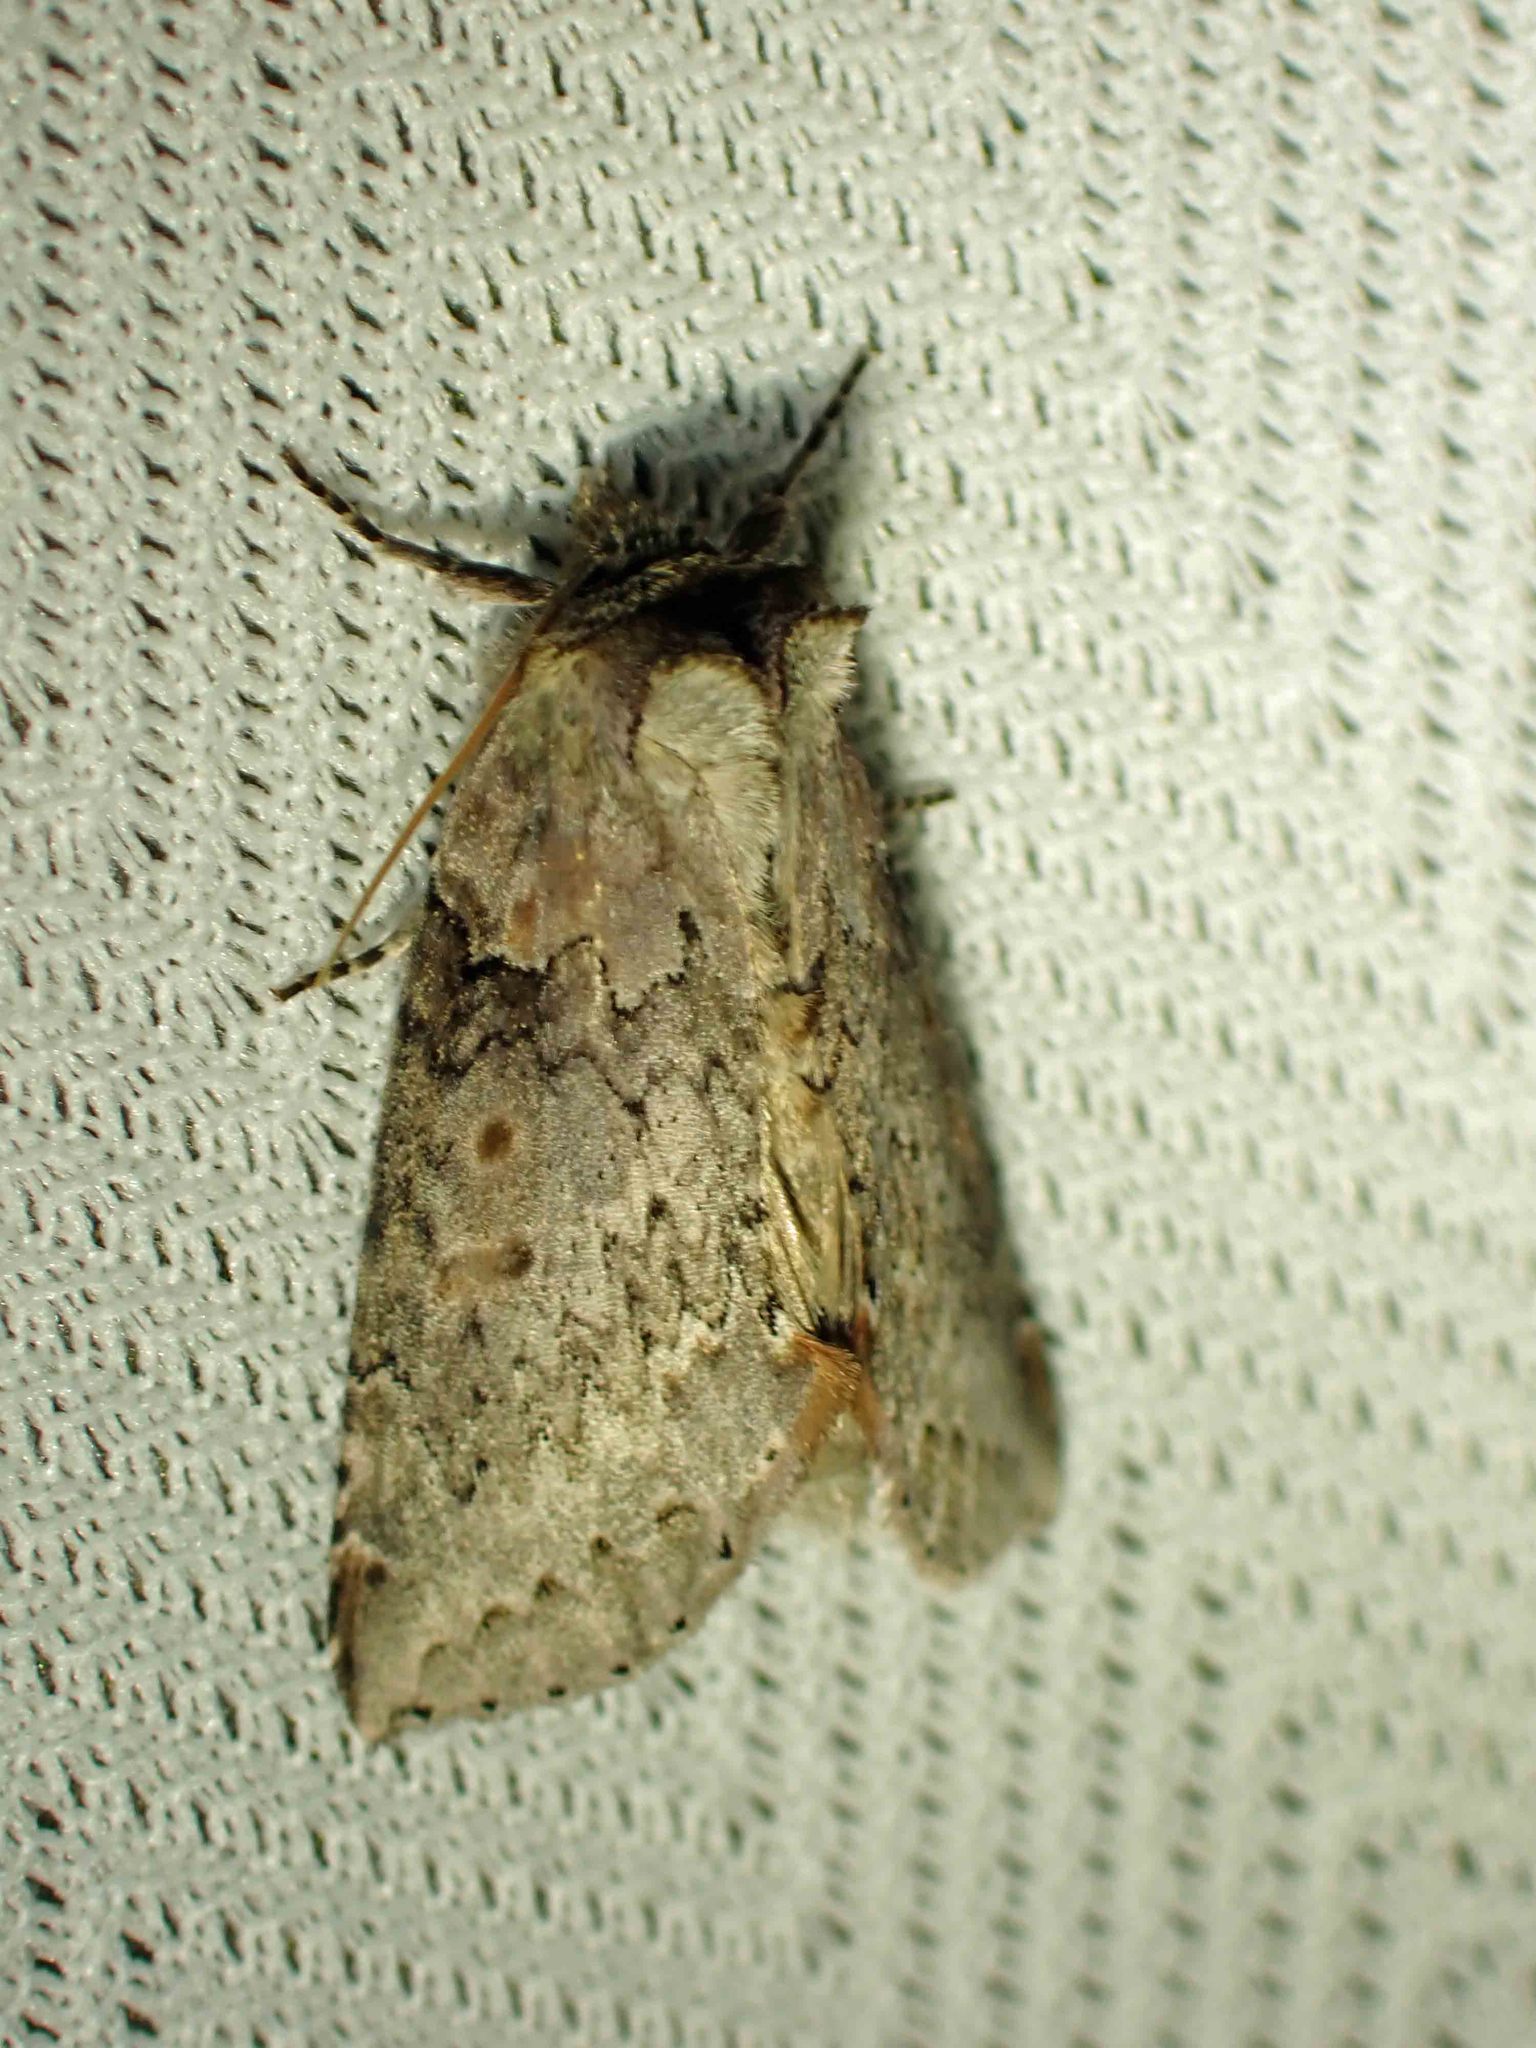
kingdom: Animalia
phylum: Arthropoda
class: Insecta
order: Lepidoptera
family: Drepanidae
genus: Pseudothyatira
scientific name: Pseudothyatira cymatophoroides
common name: Tufted thyatirid moth
